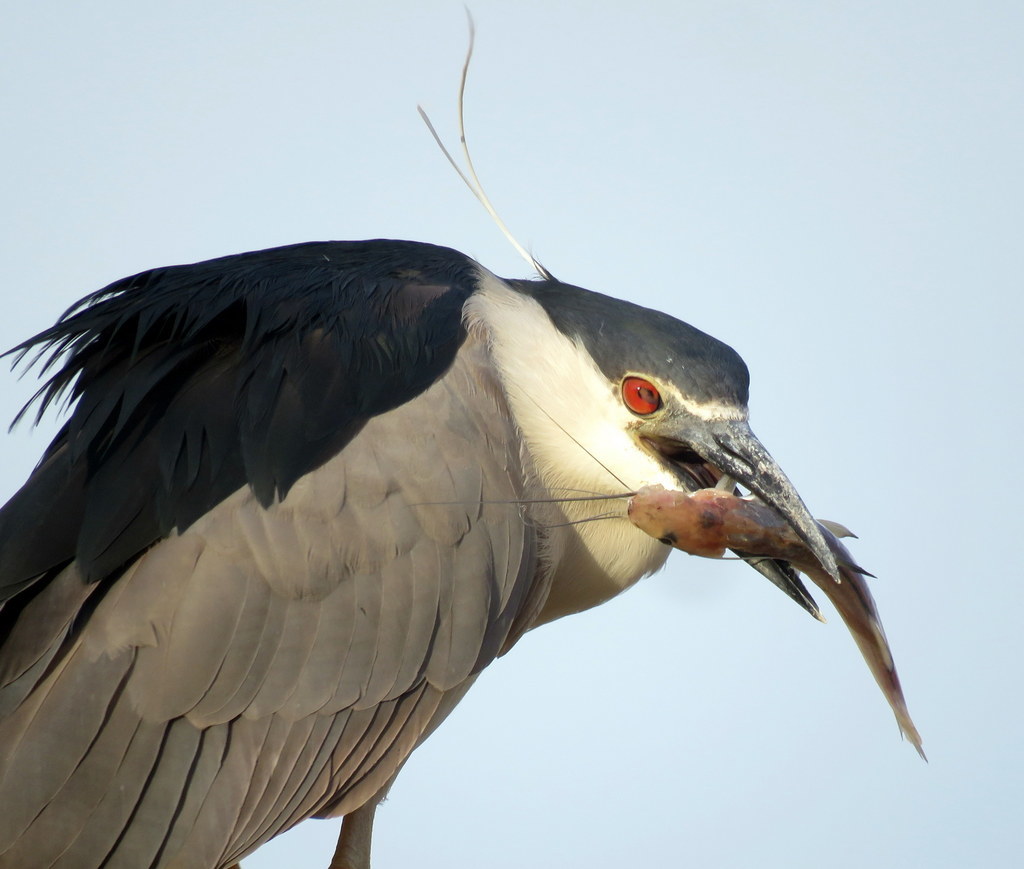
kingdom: Animalia
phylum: Chordata
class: Aves
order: Pelecaniformes
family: Ardeidae
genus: Nycticorax
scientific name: Nycticorax nycticorax
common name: Black-crowned night heron
